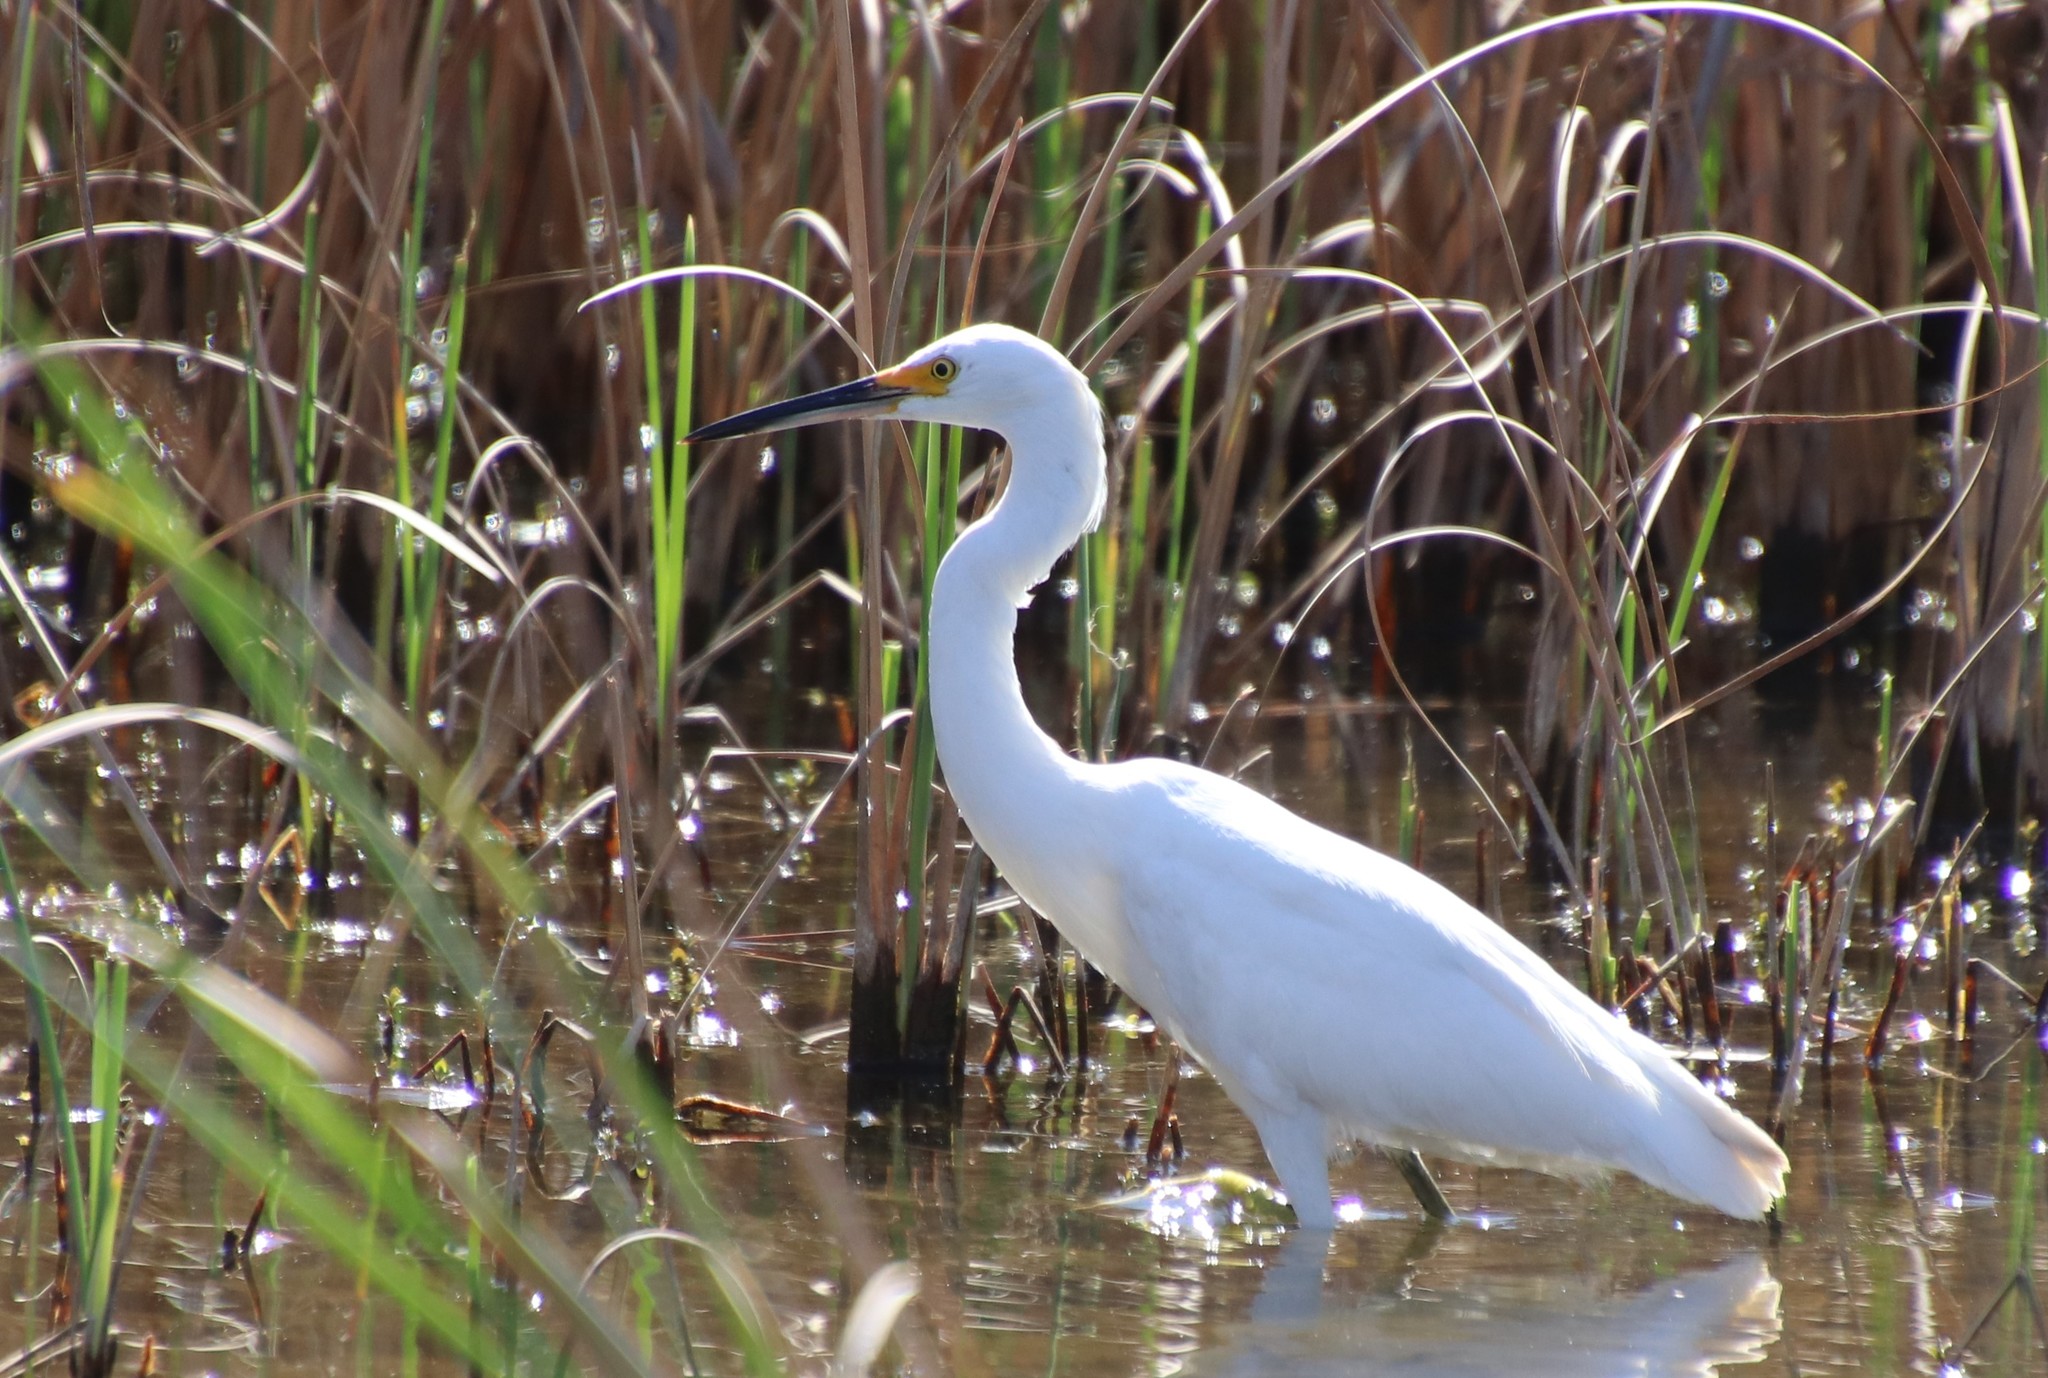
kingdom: Animalia
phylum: Chordata
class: Aves
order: Pelecaniformes
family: Ardeidae
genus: Egretta
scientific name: Egretta thula
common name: Snowy egret
